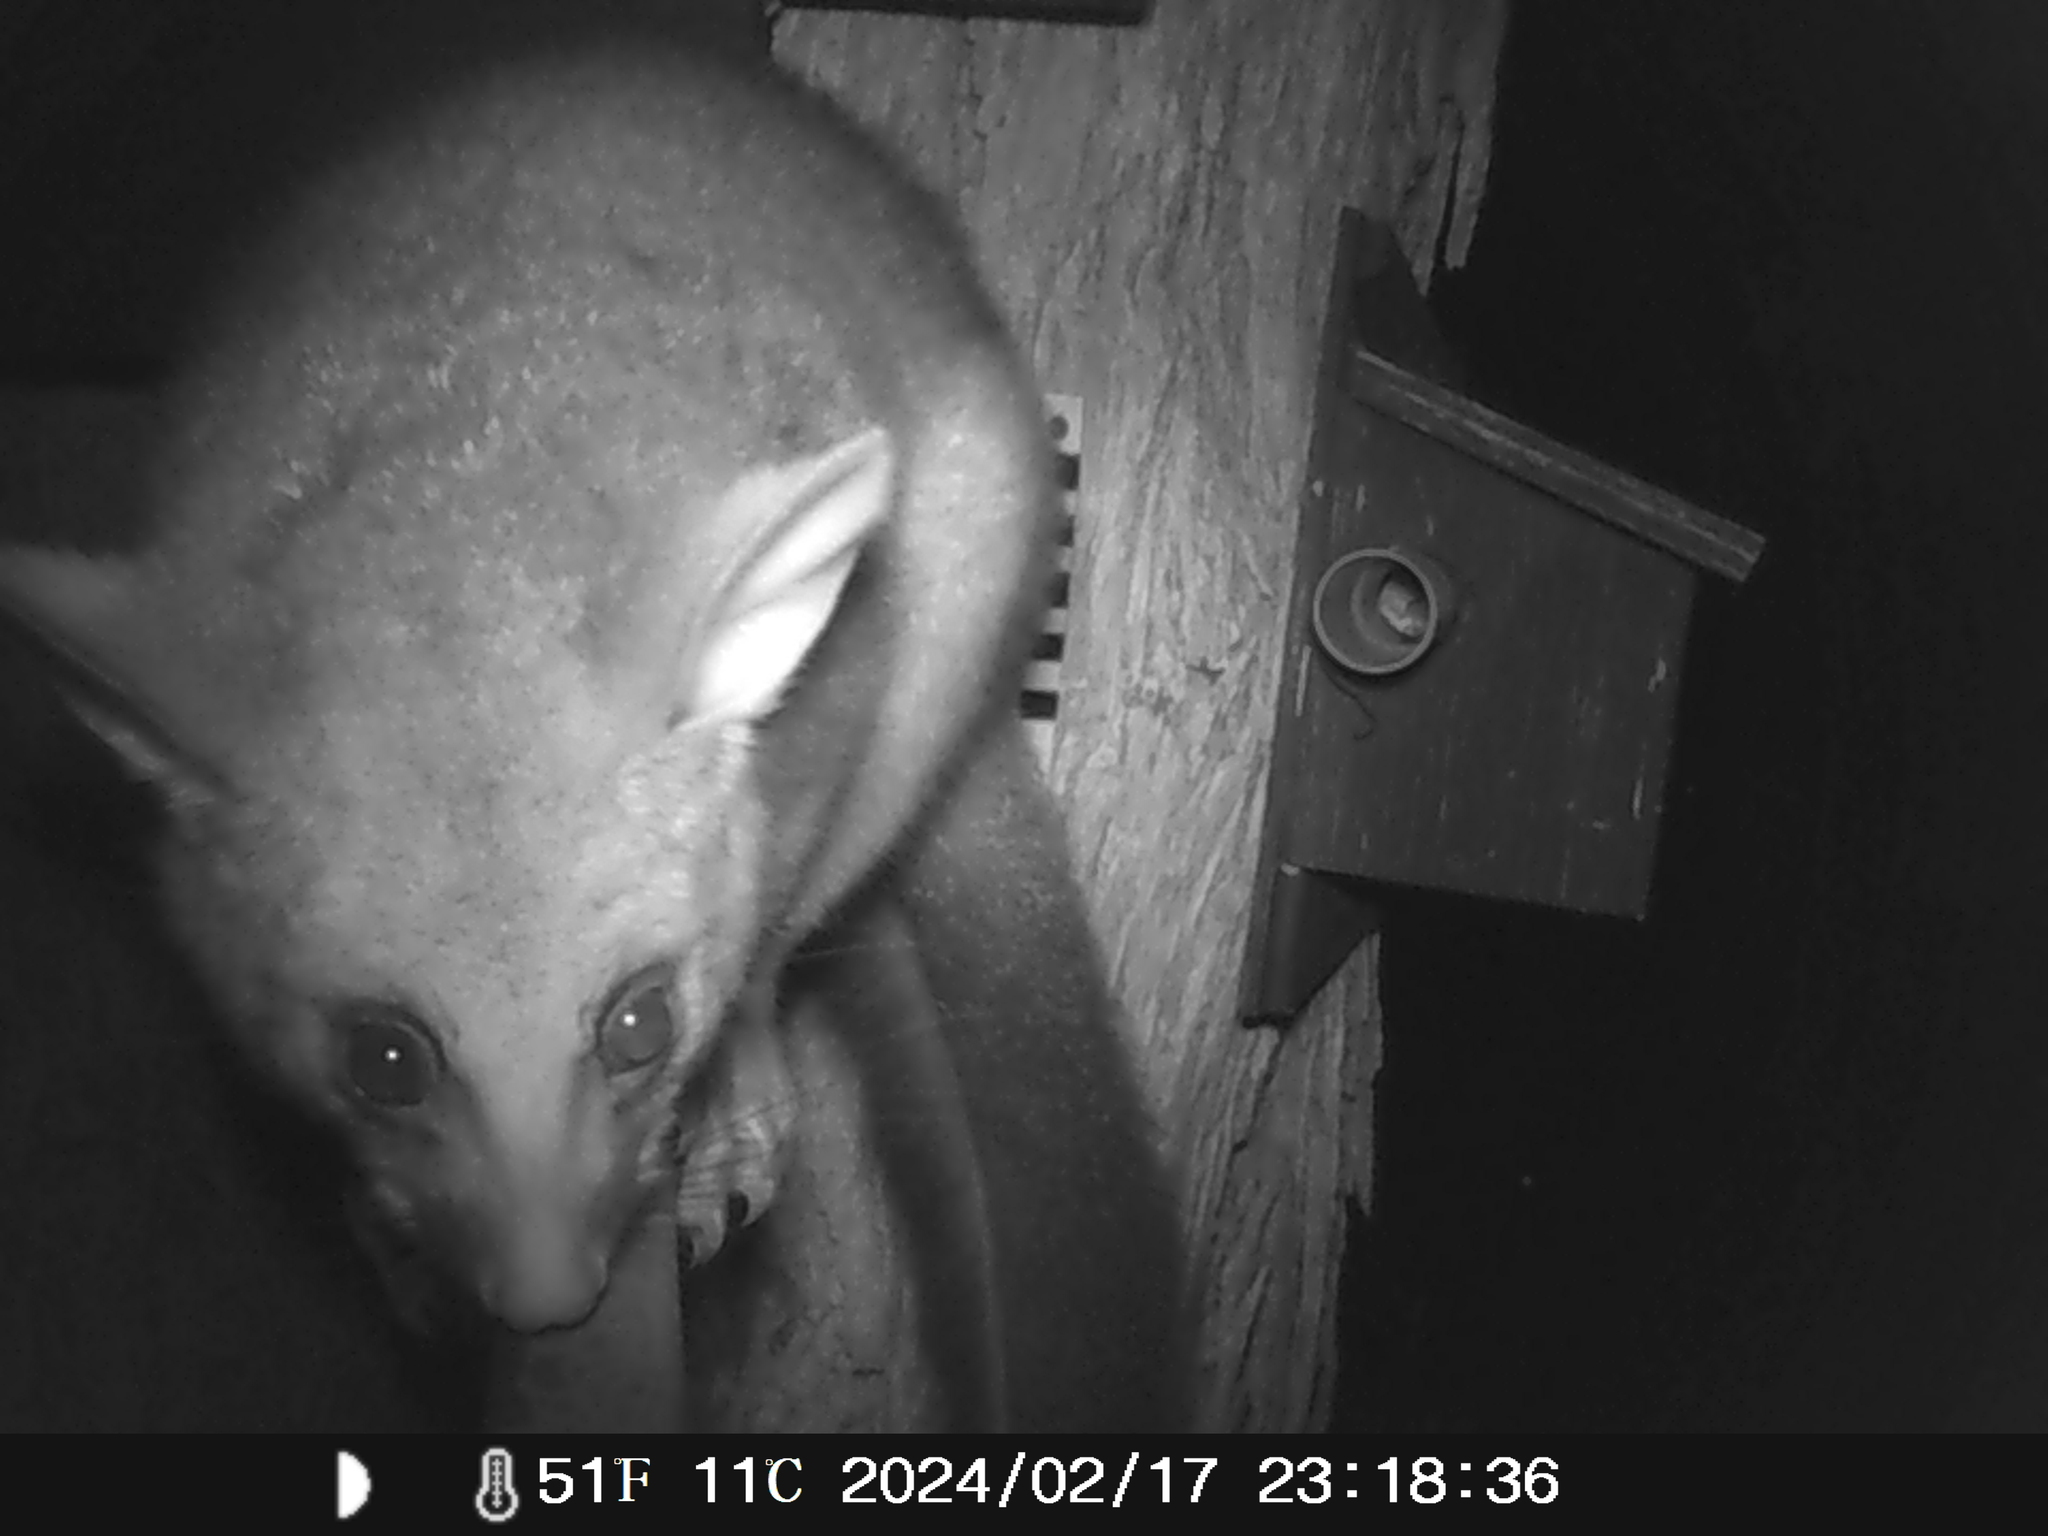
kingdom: Animalia
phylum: Chordata
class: Mammalia
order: Diprotodontia
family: Phalangeridae
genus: Trichosurus
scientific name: Trichosurus vulpecula
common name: Common brushtail
